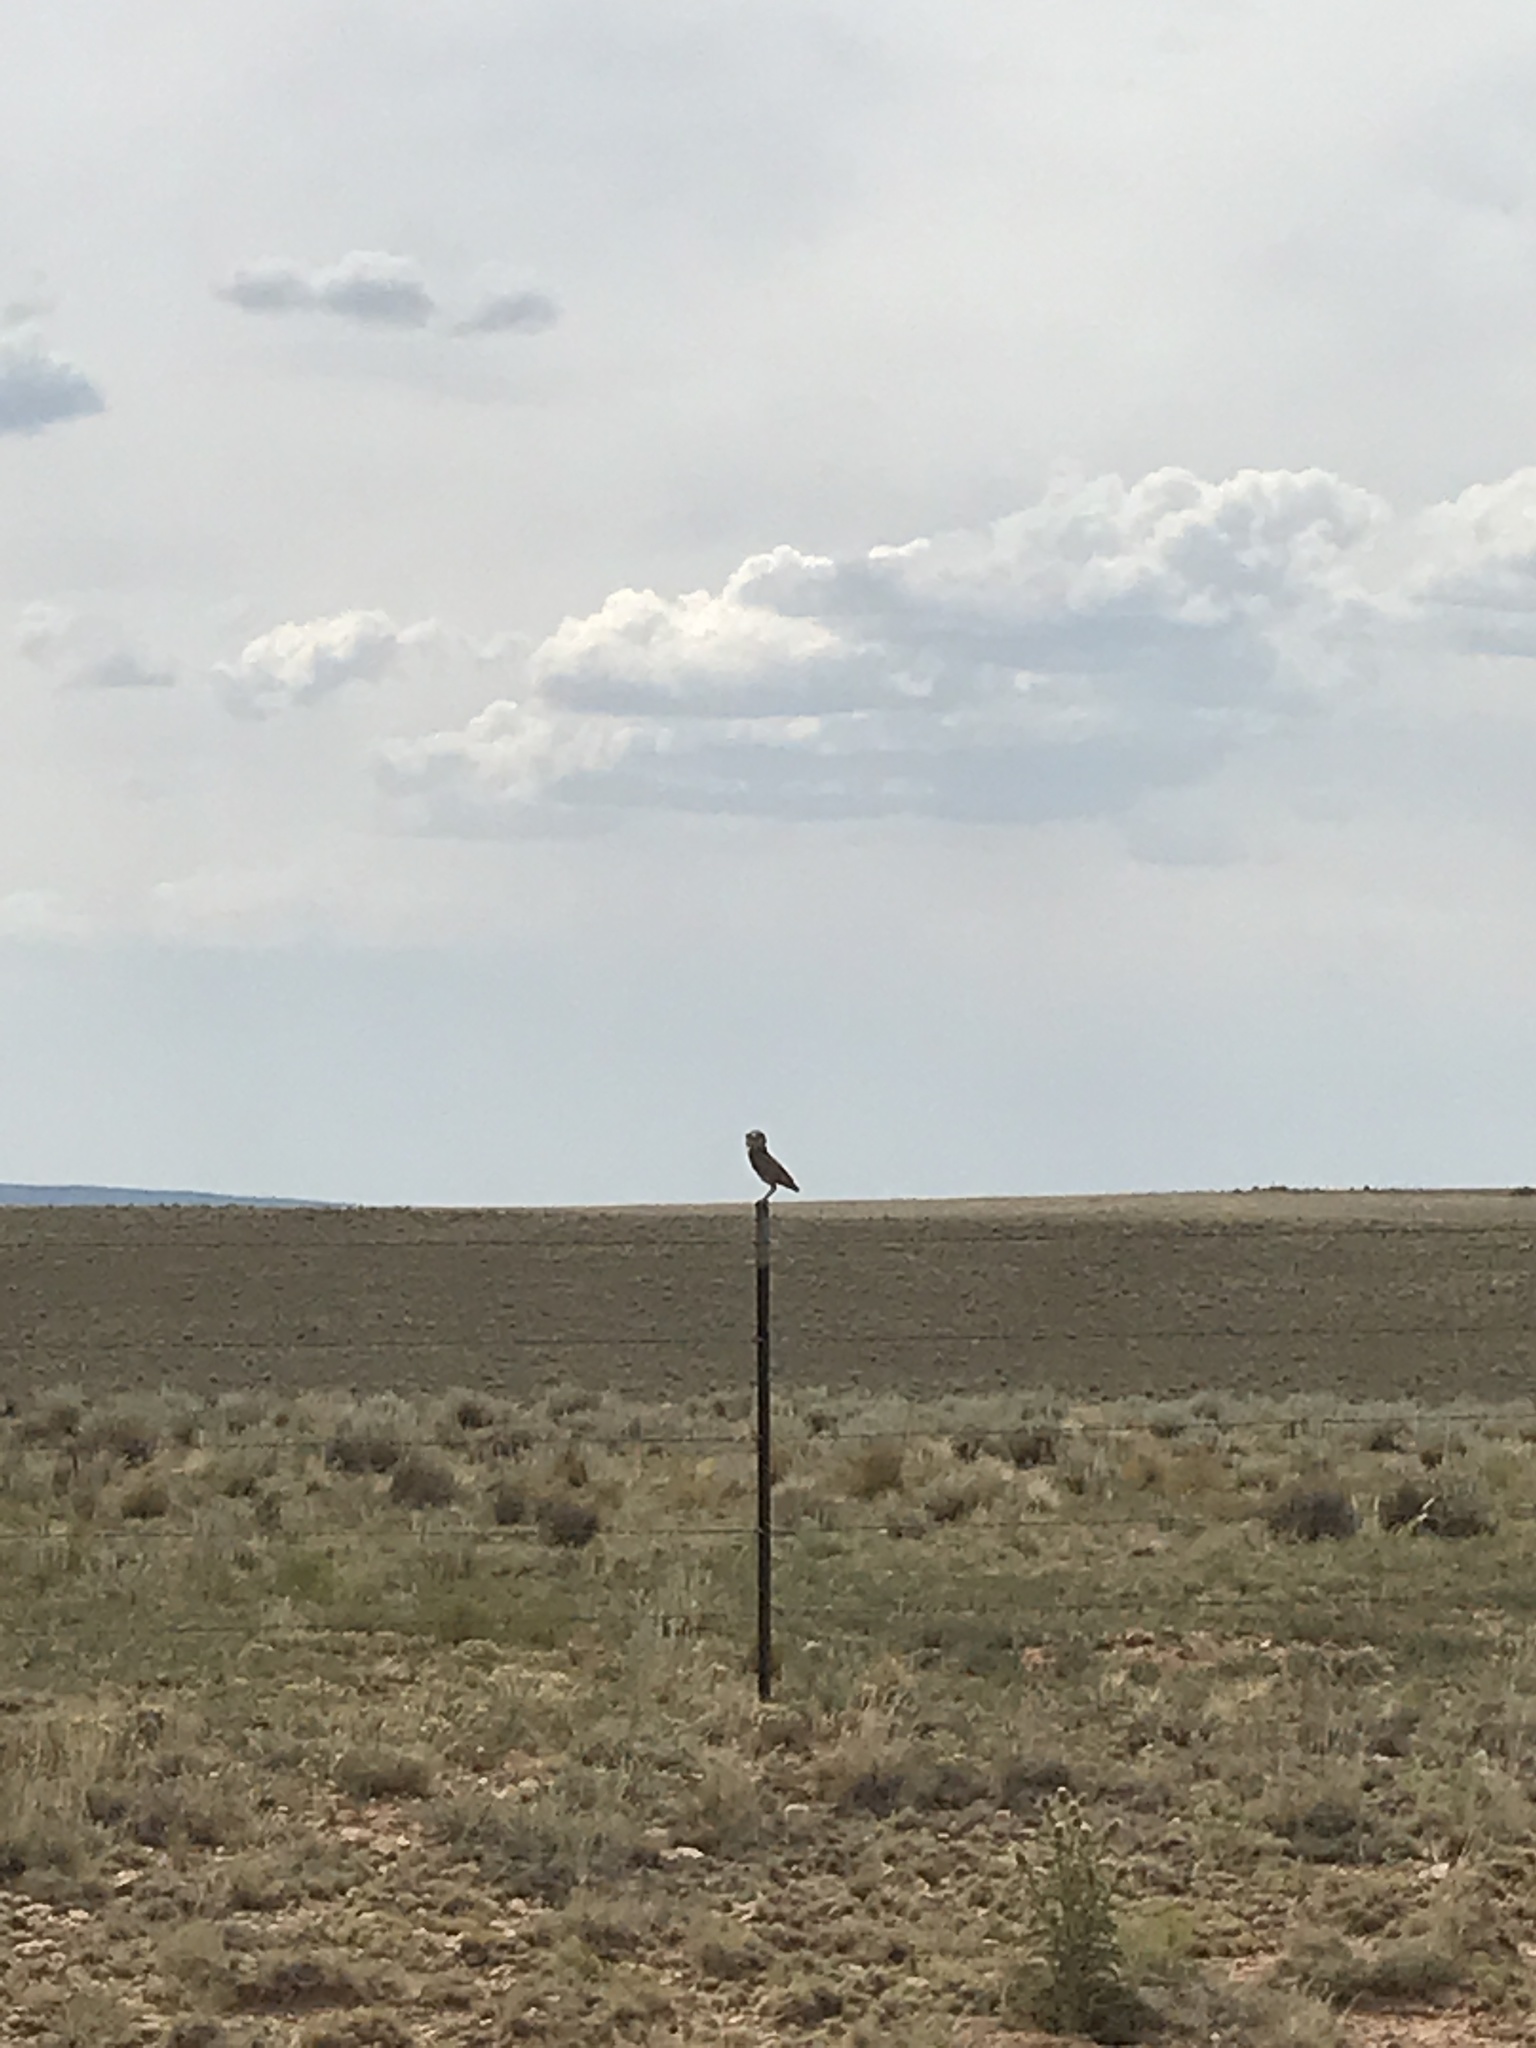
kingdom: Animalia
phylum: Chordata
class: Aves
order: Strigiformes
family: Strigidae
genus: Athene
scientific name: Athene cunicularia
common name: Burrowing owl
